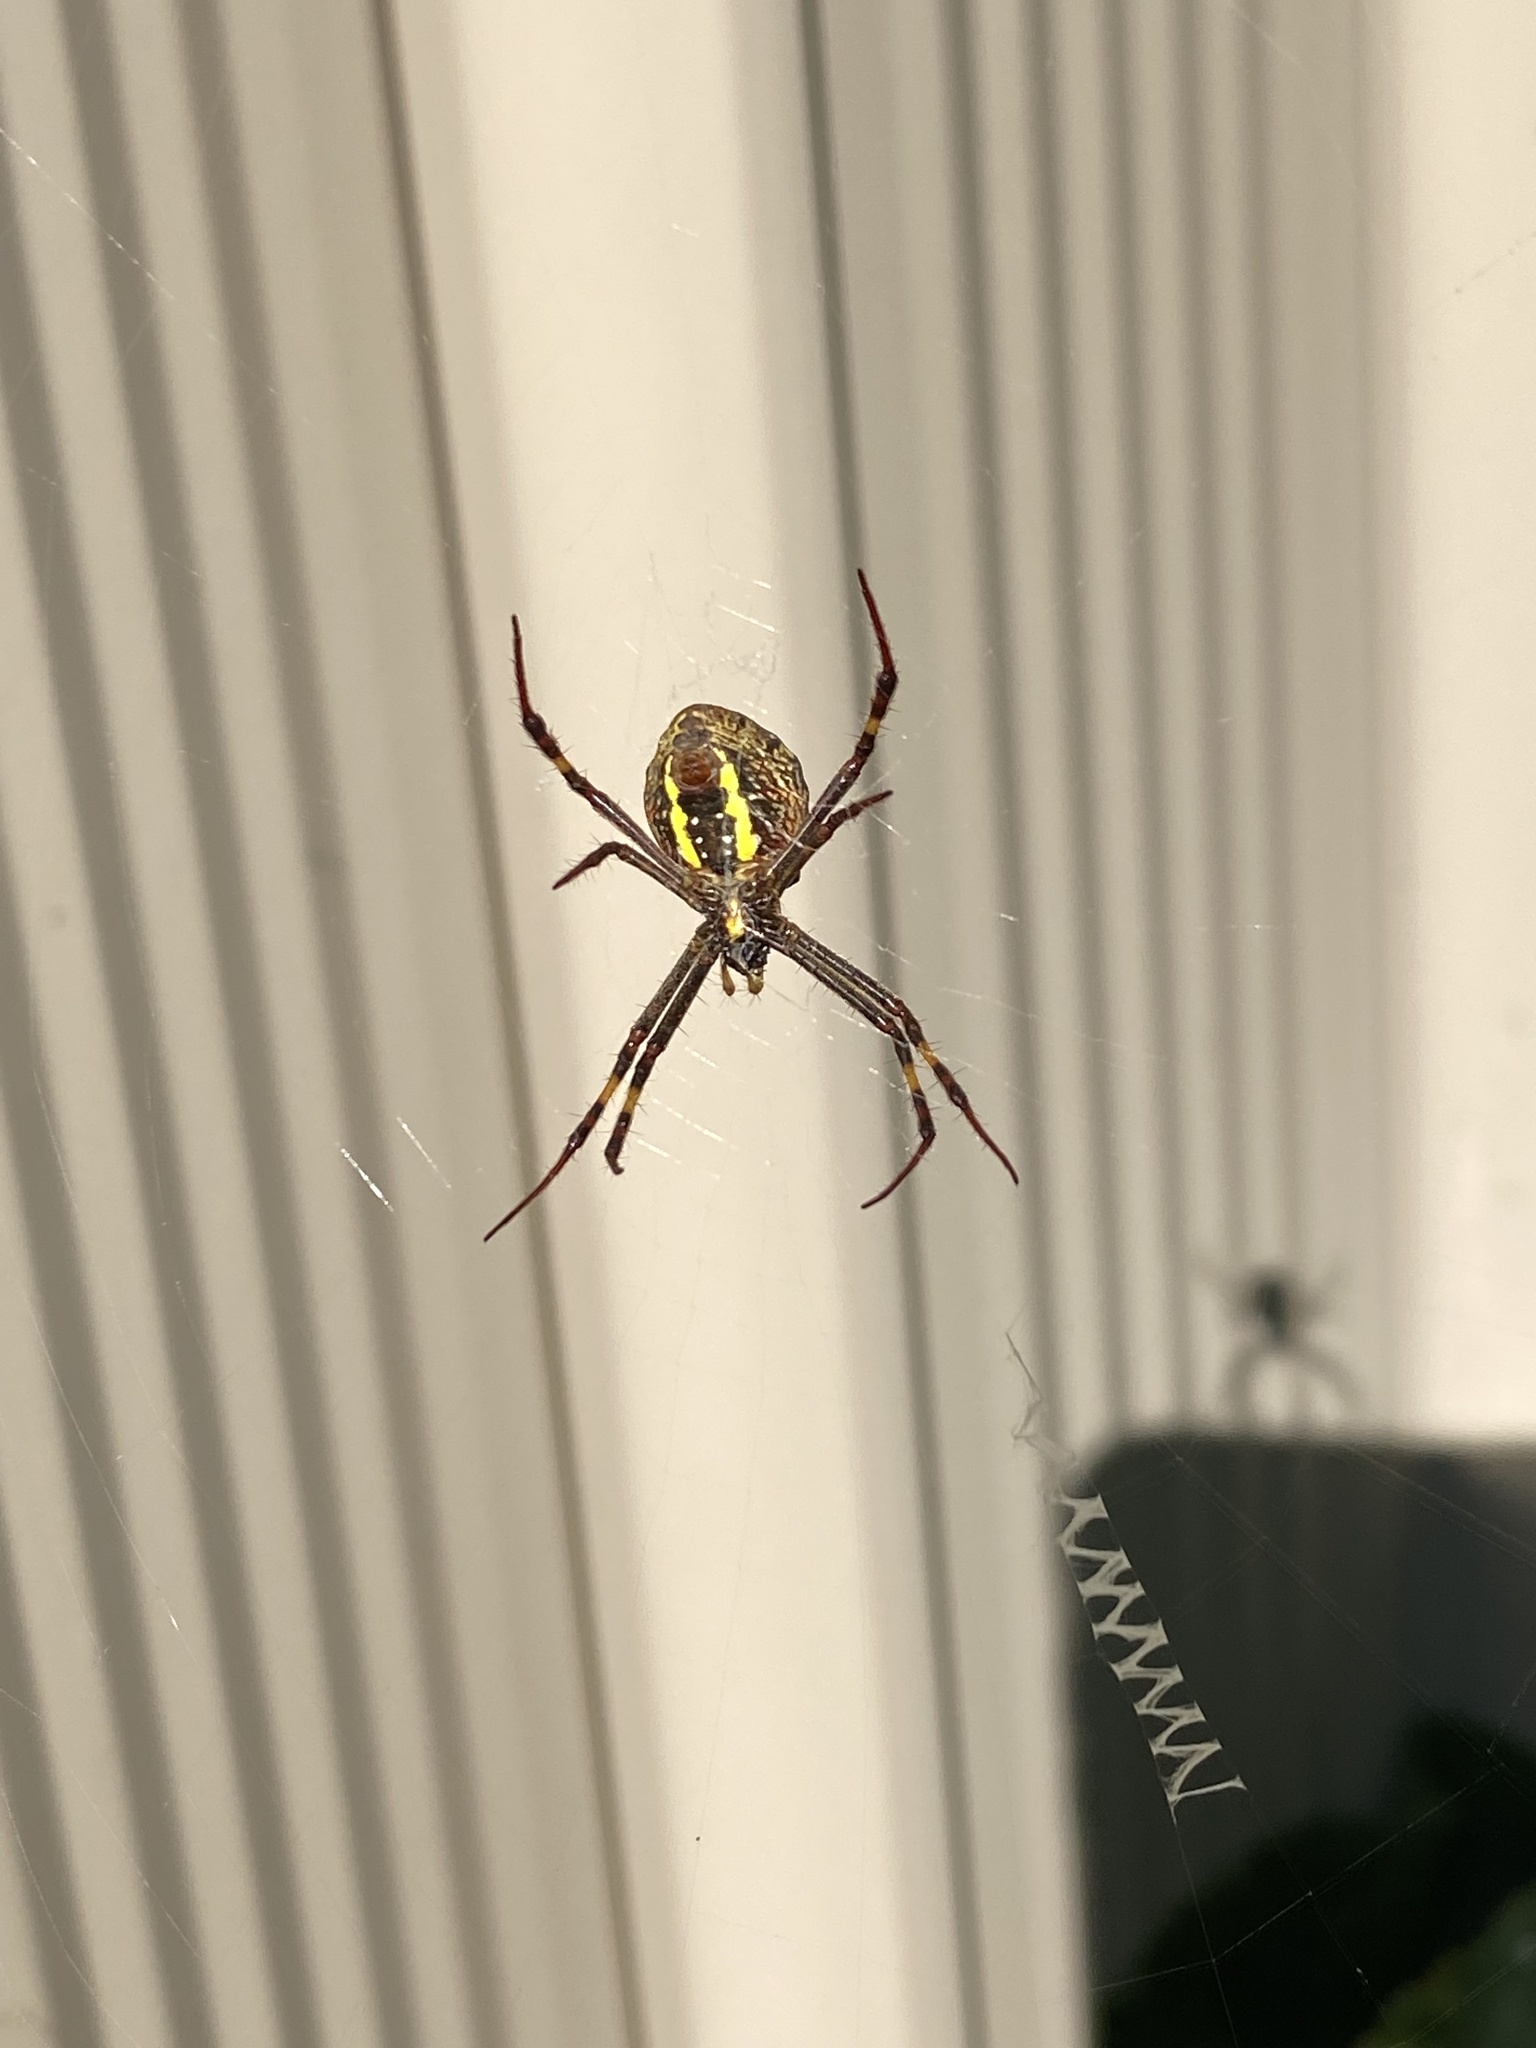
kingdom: Animalia
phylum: Arthropoda
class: Arachnida
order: Araneae
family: Araneidae
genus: Argiope
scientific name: Argiope keyserlingi
